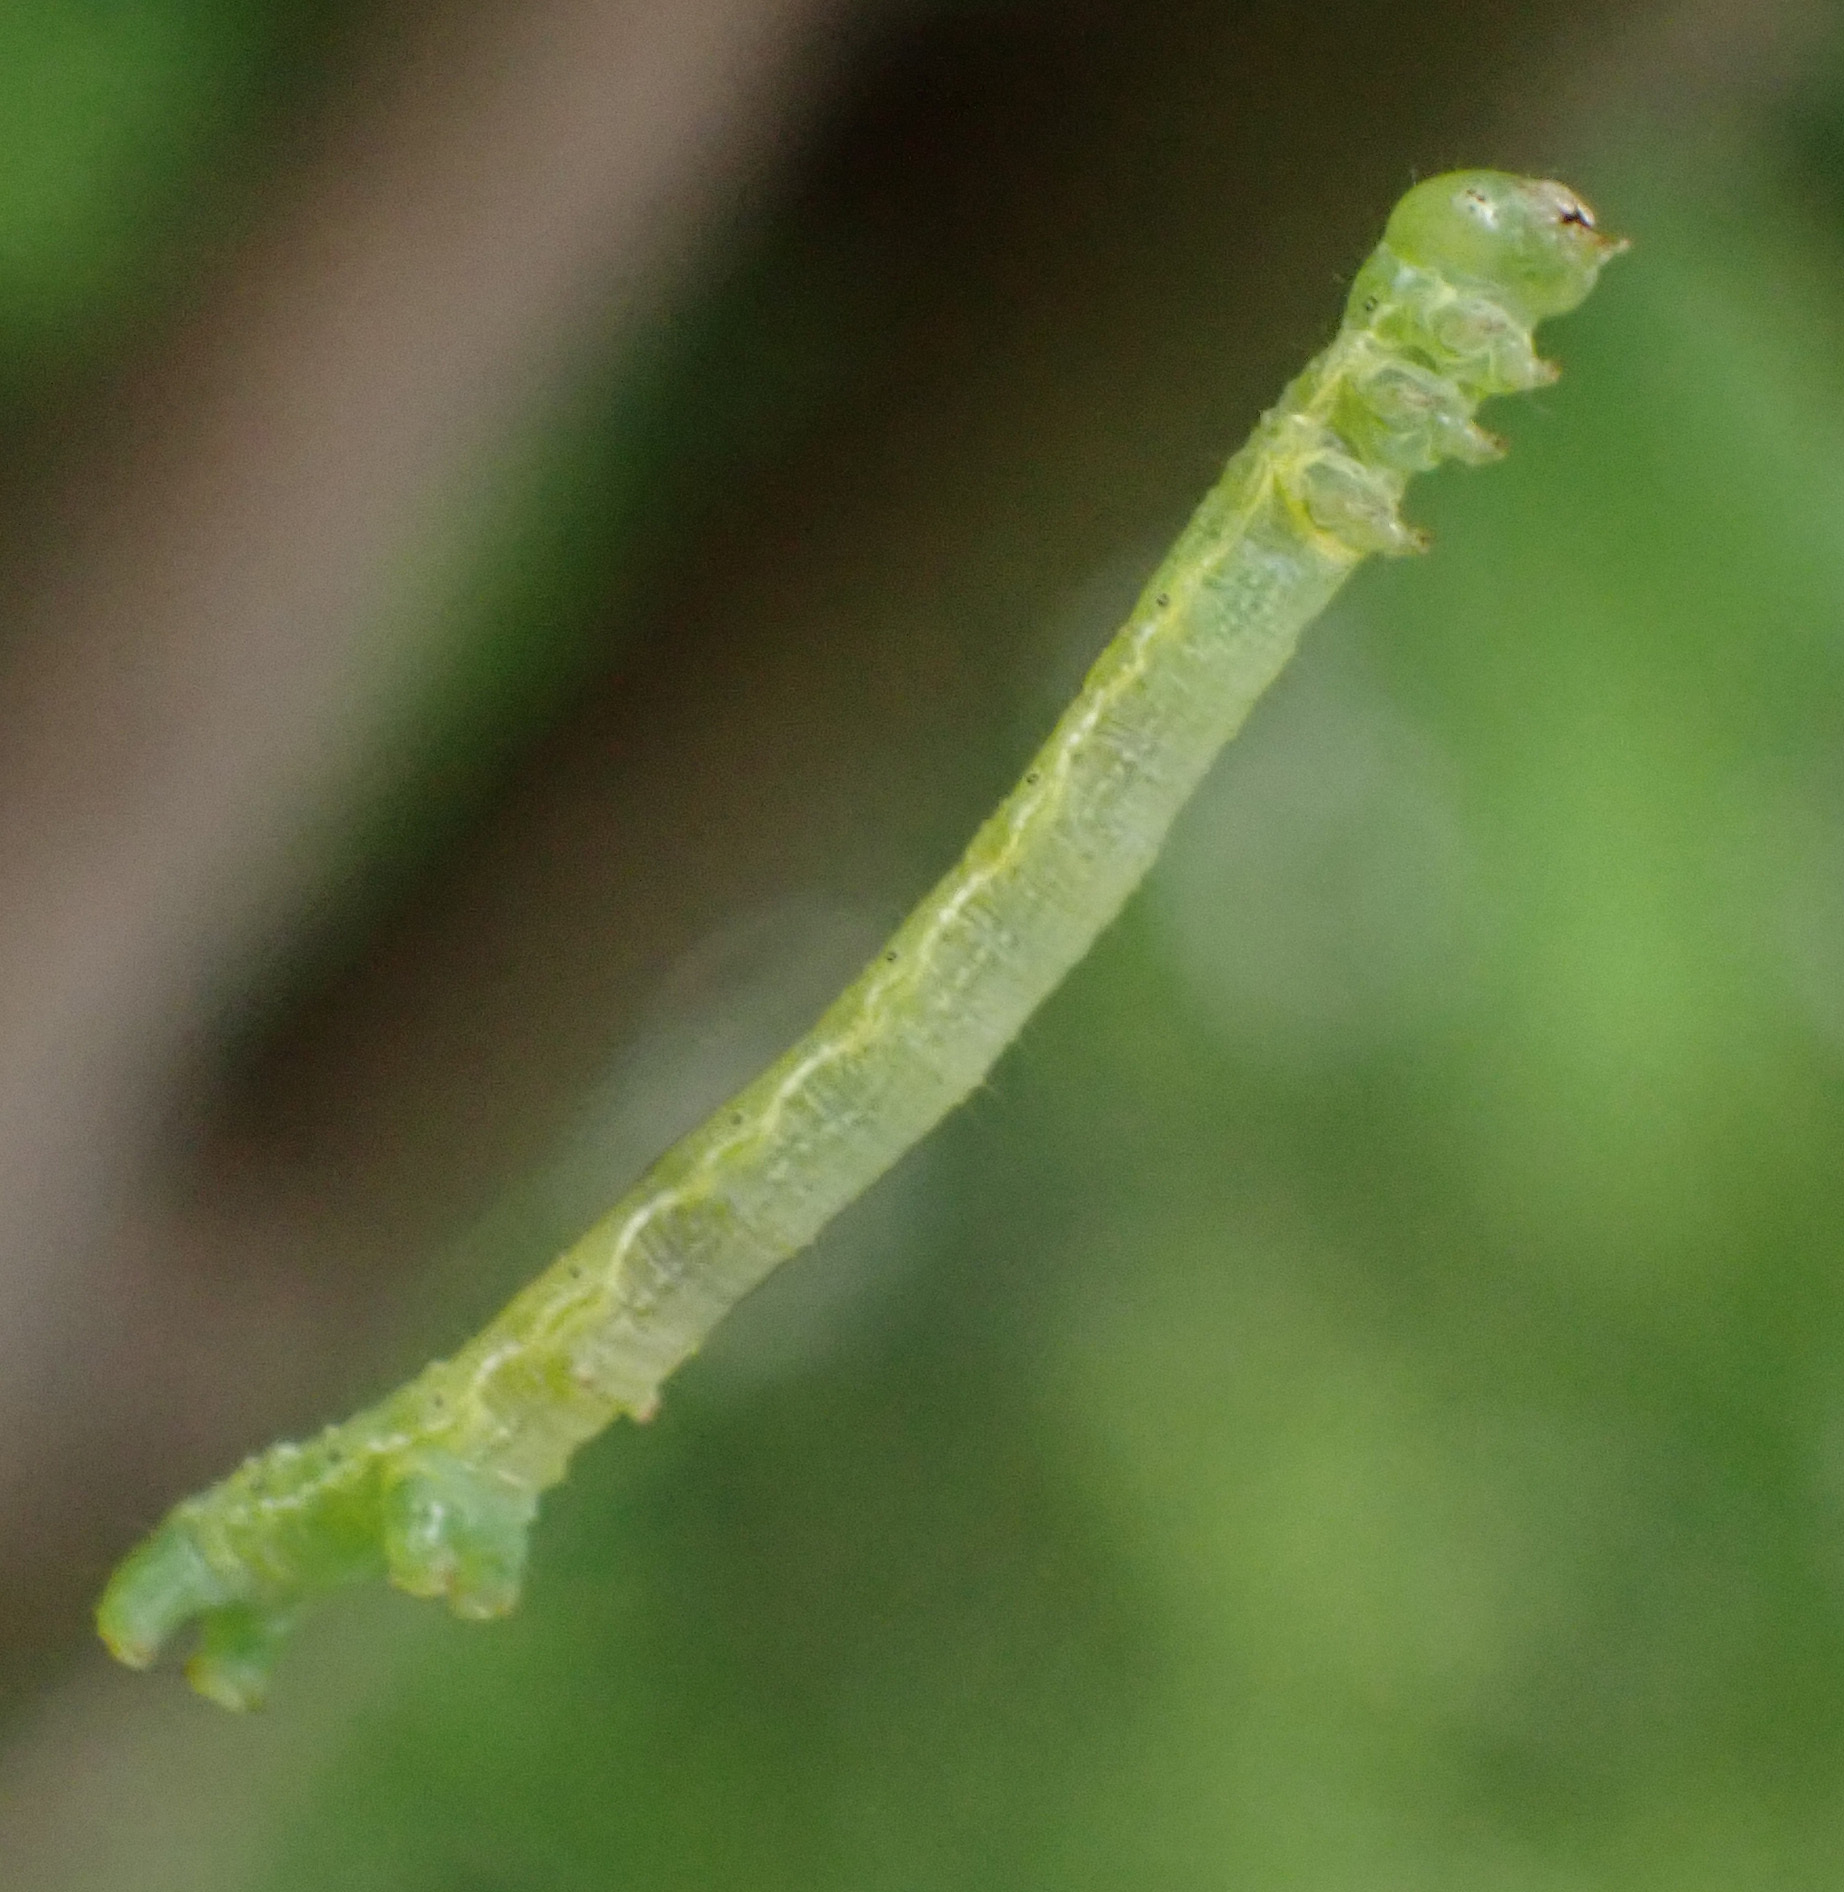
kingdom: Animalia
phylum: Arthropoda
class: Insecta
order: Lepidoptera
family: Geometridae
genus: Alsophila
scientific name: Alsophila aescularia
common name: March moth
